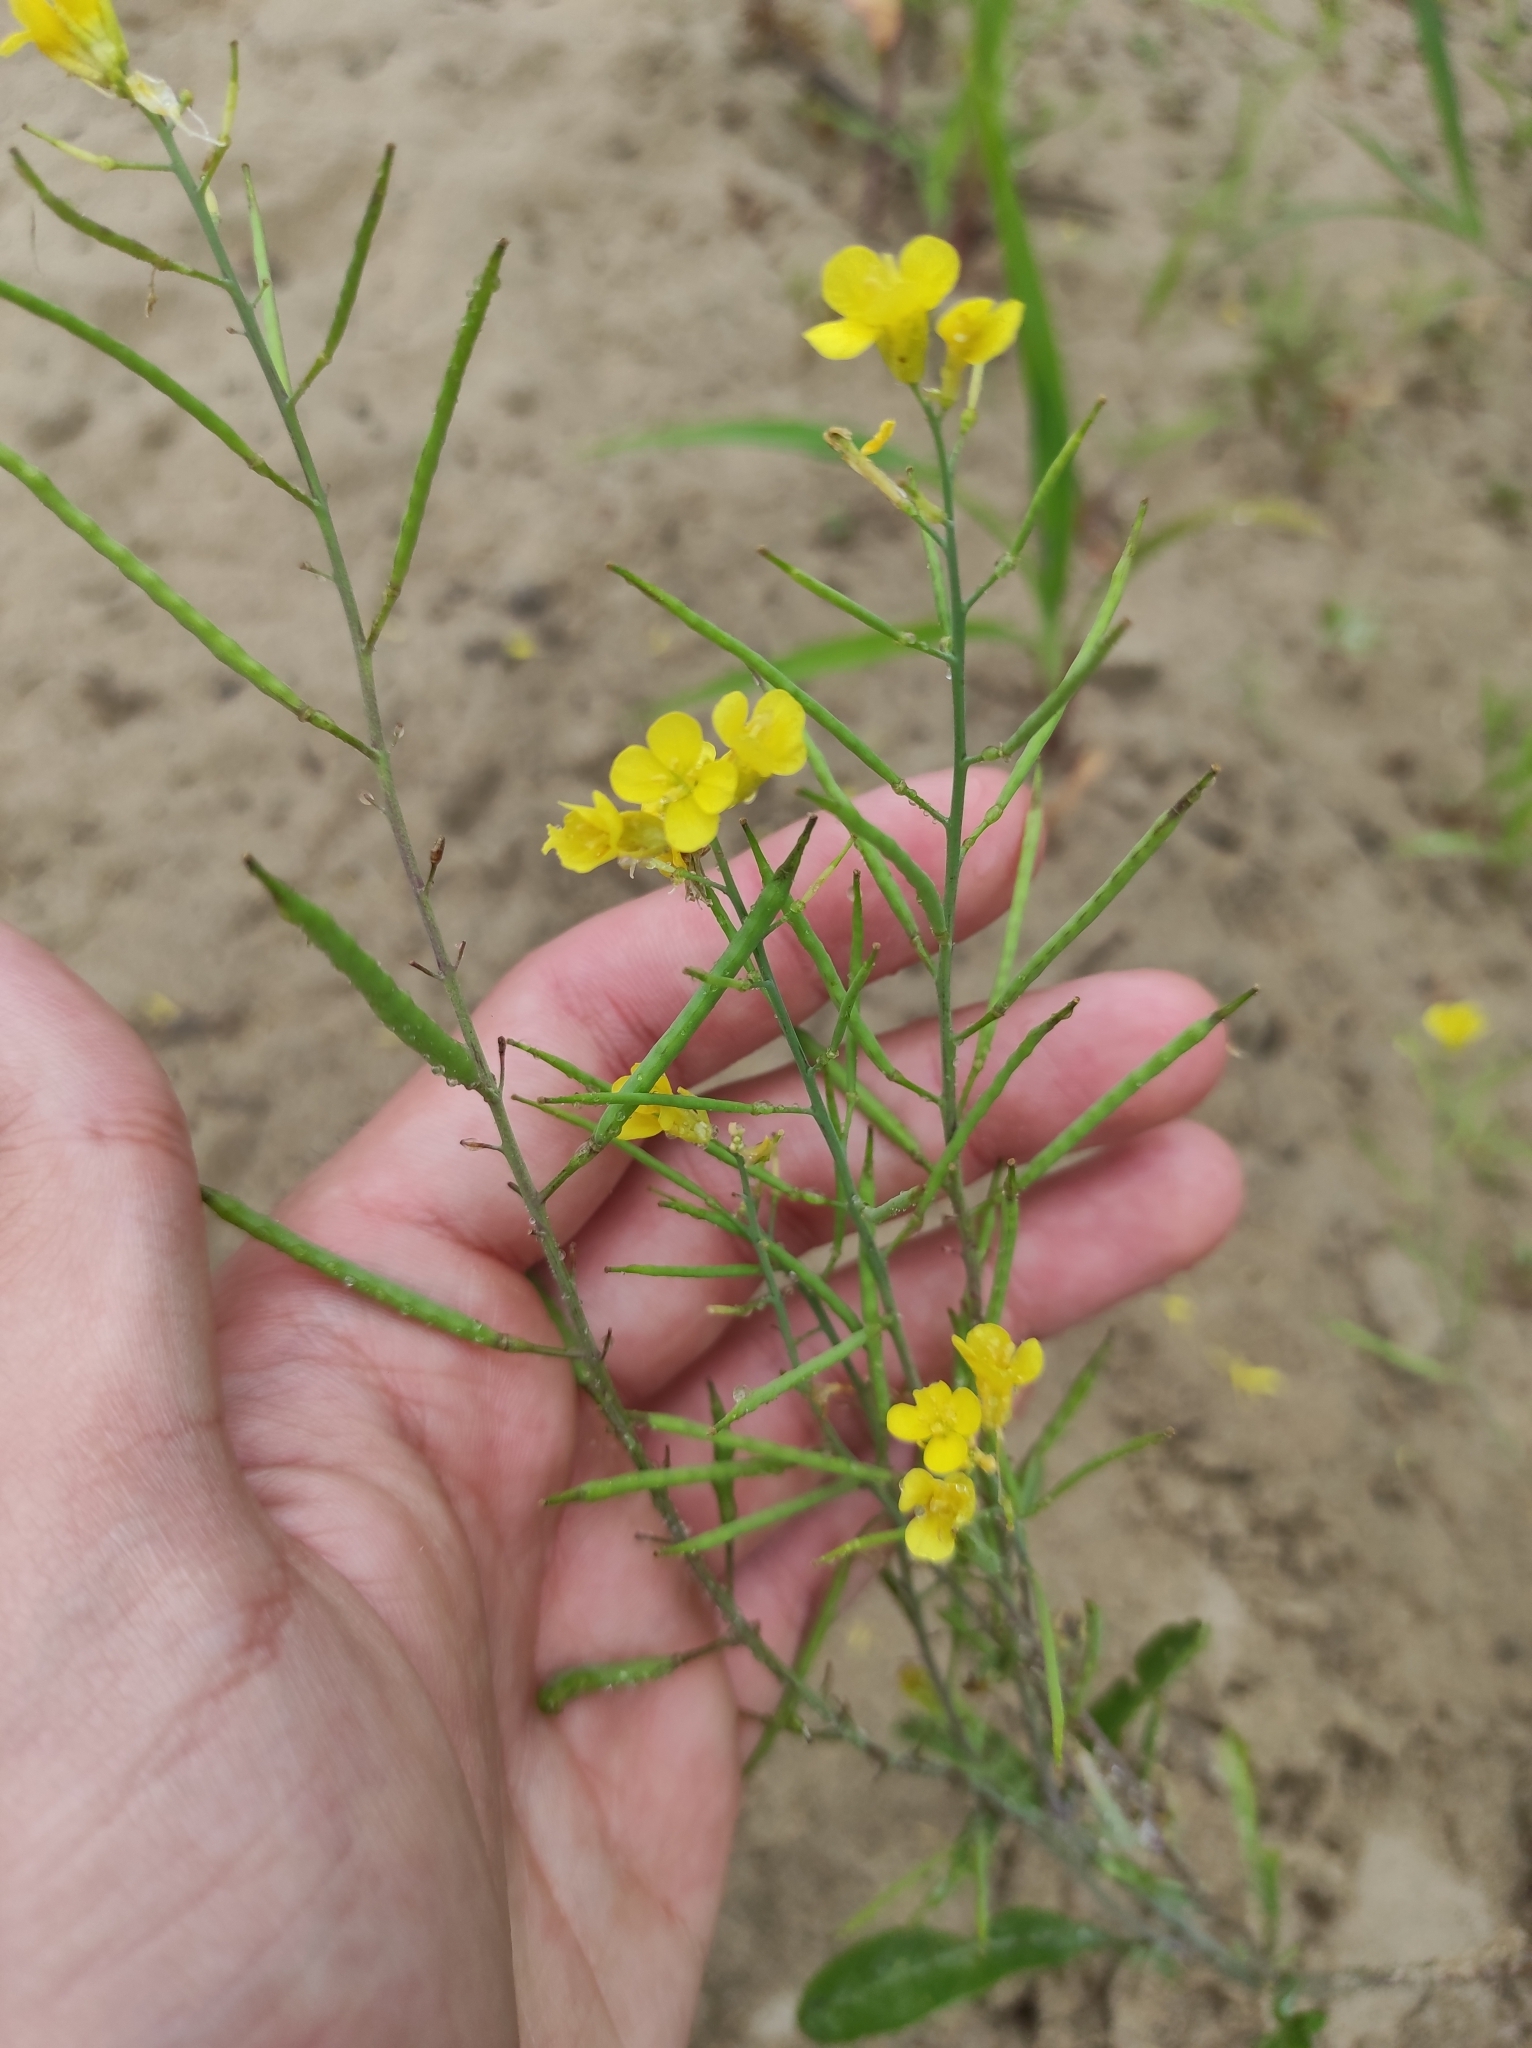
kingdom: Plantae
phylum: Tracheophyta
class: Magnoliopsida
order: Brassicales
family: Brassicaceae
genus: Brassica
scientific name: Brassica juncea
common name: Brown mustard
